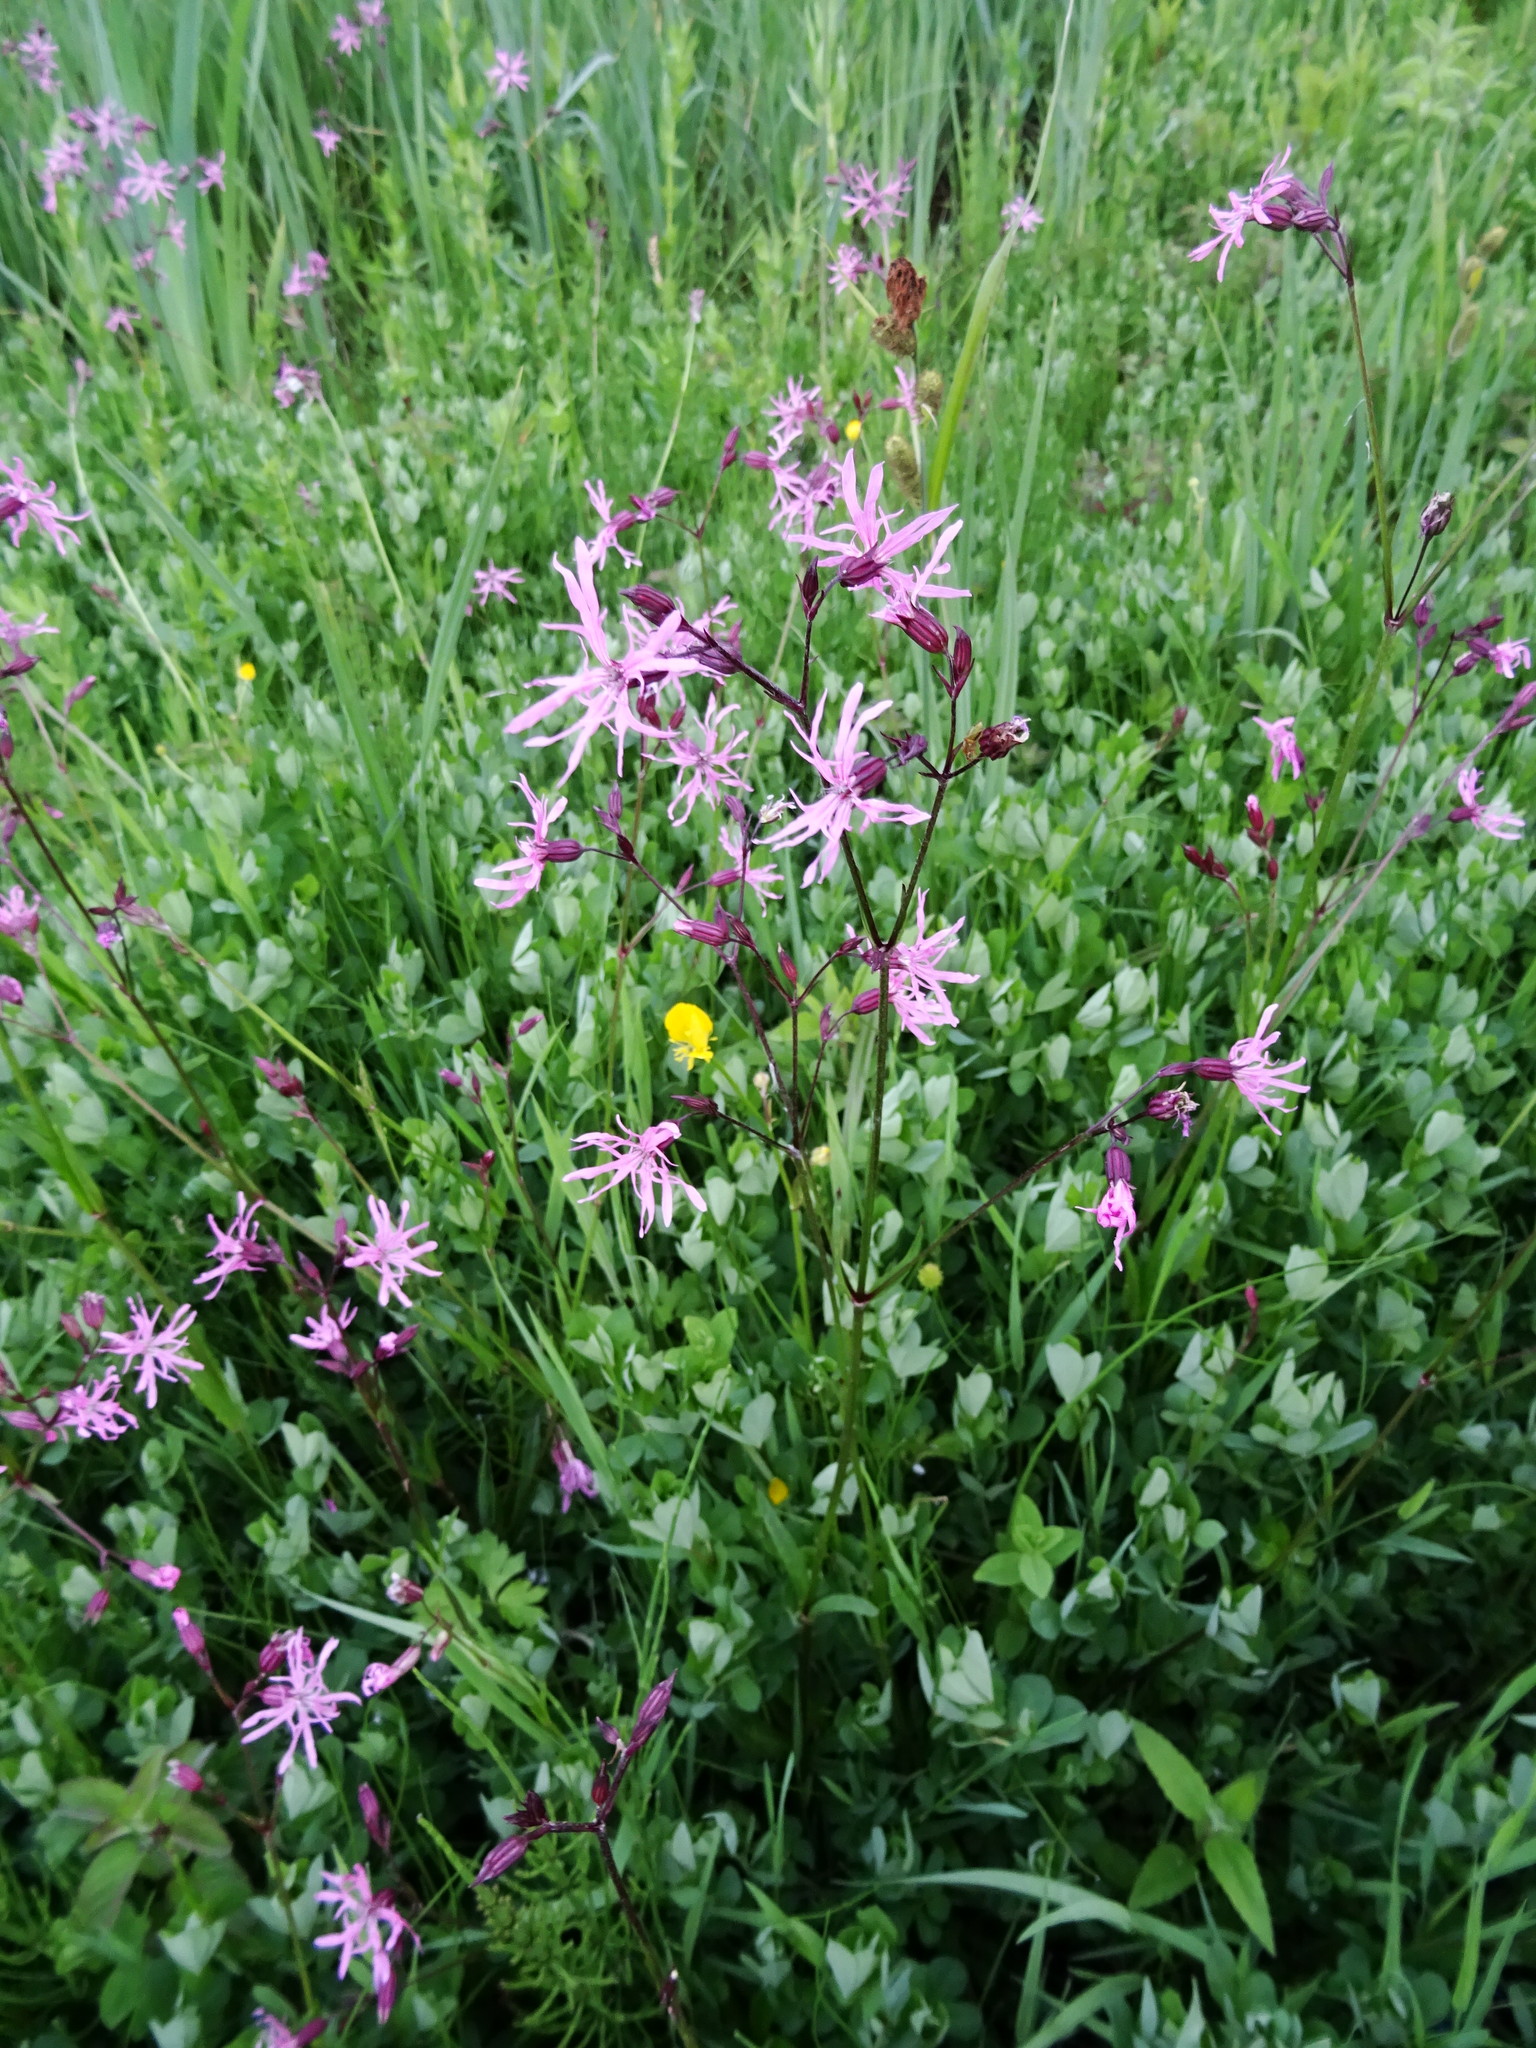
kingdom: Plantae
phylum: Tracheophyta
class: Magnoliopsida
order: Caryophyllales
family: Caryophyllaceae
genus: Silene
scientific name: Silene flos-cuculi
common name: Ragged-robin
